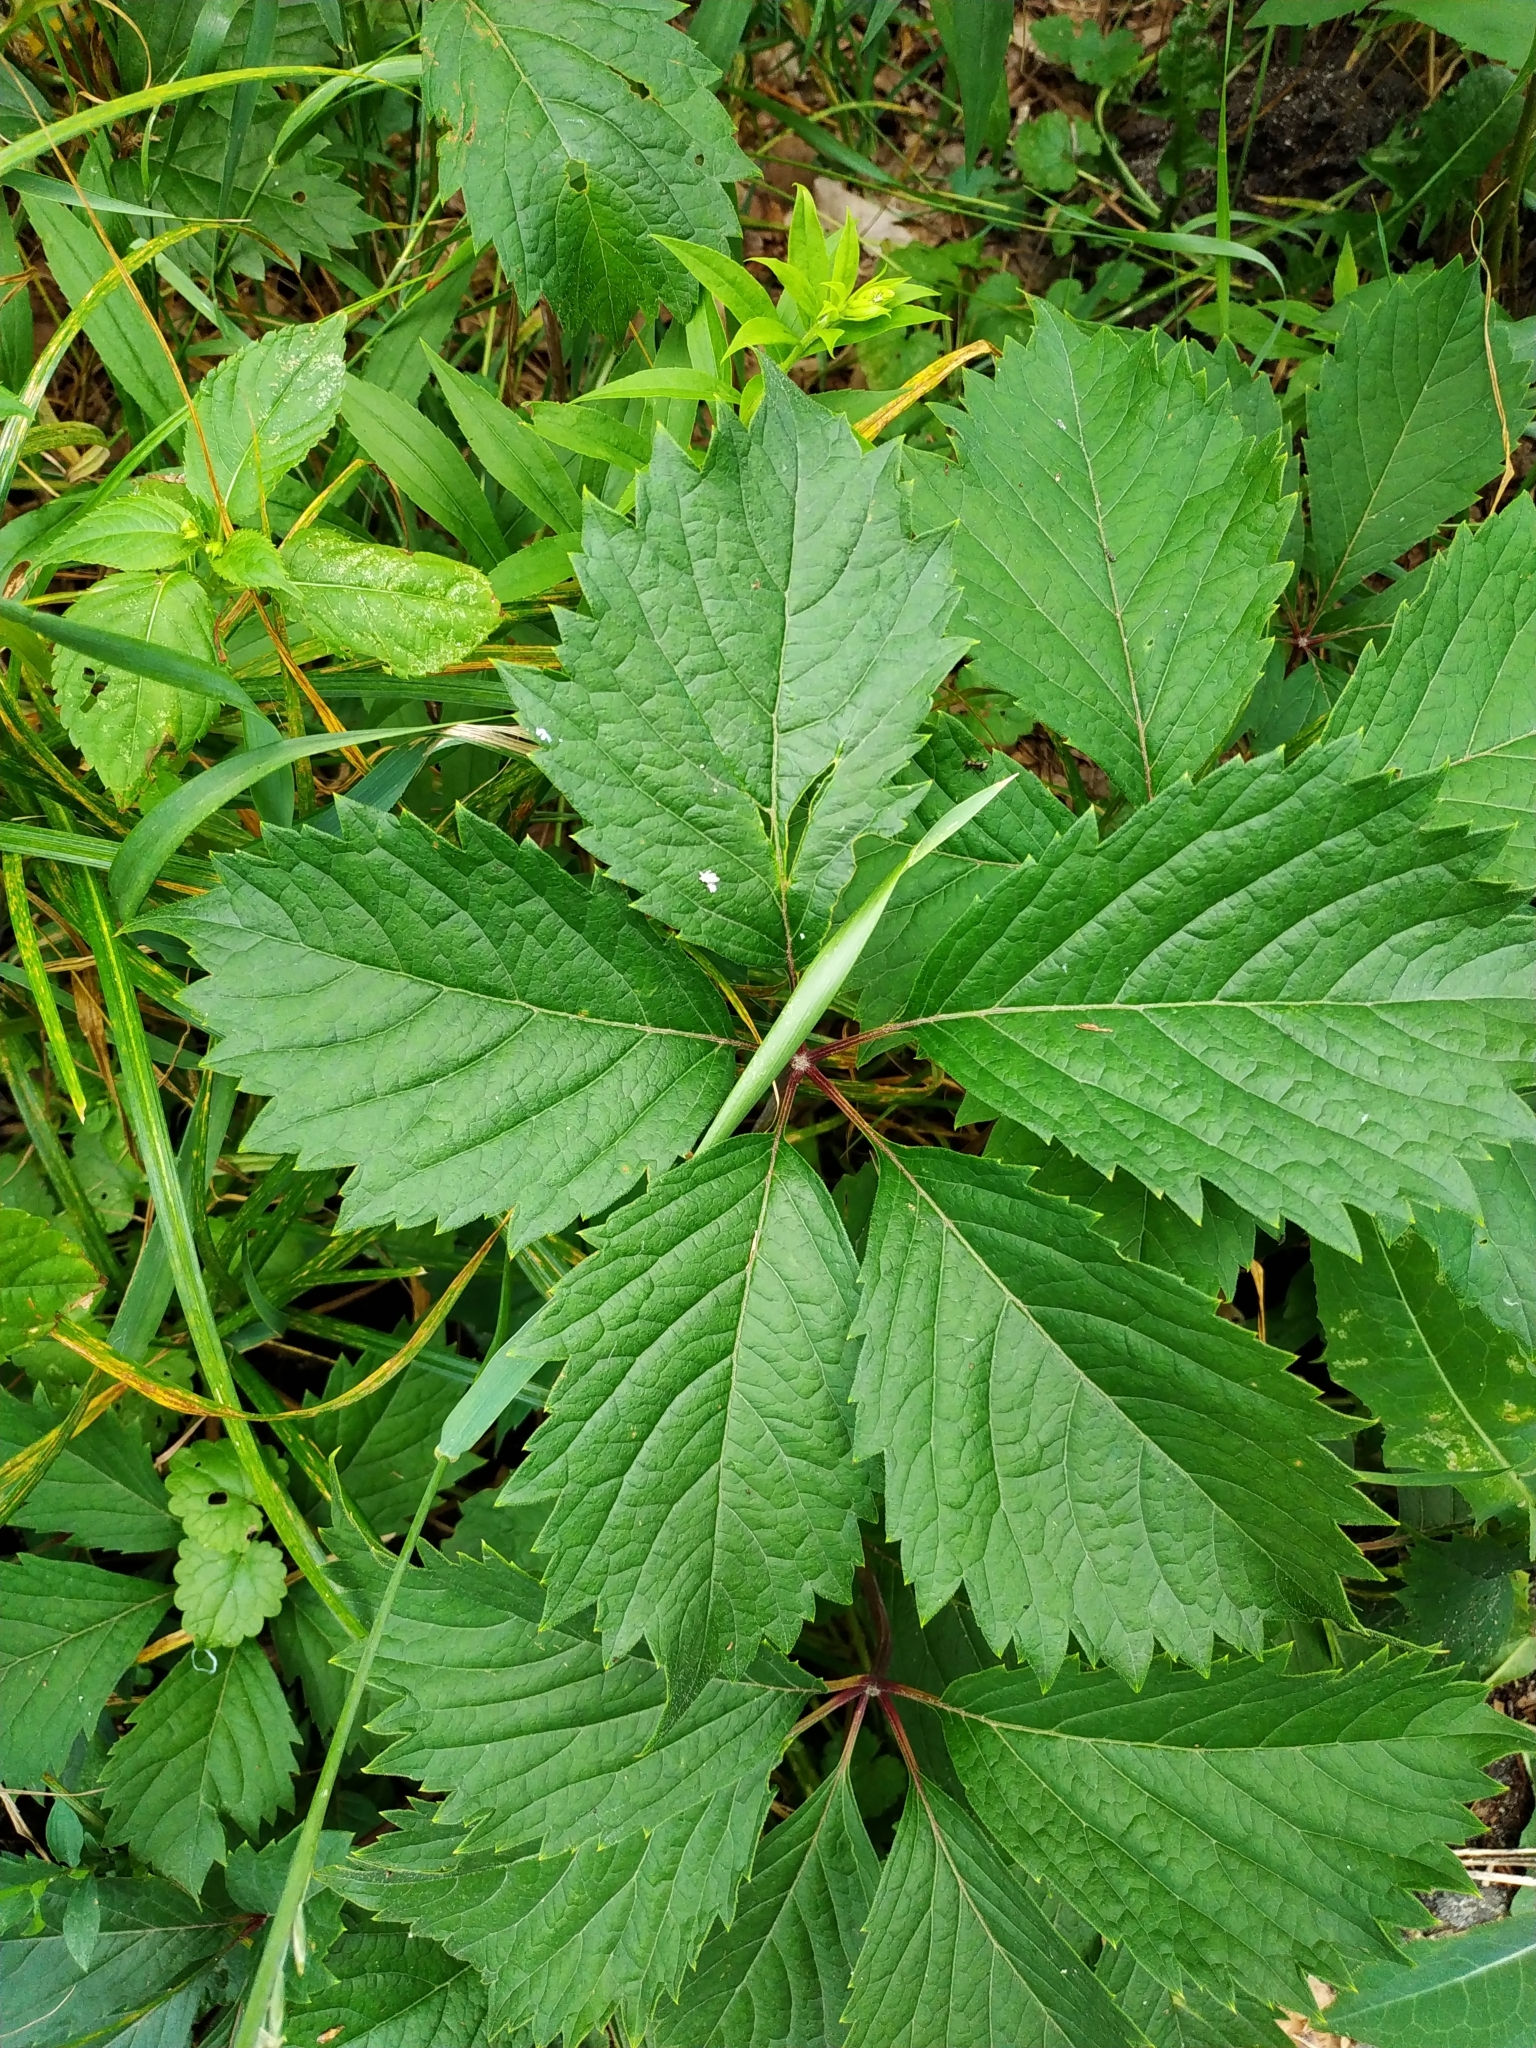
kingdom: Plantae
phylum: Tracheophyta
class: Magnoliopsida
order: Vitales
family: Vitaceae
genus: Parthenocissus
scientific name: Parthenocissus inserta
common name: False virginia-creeper
